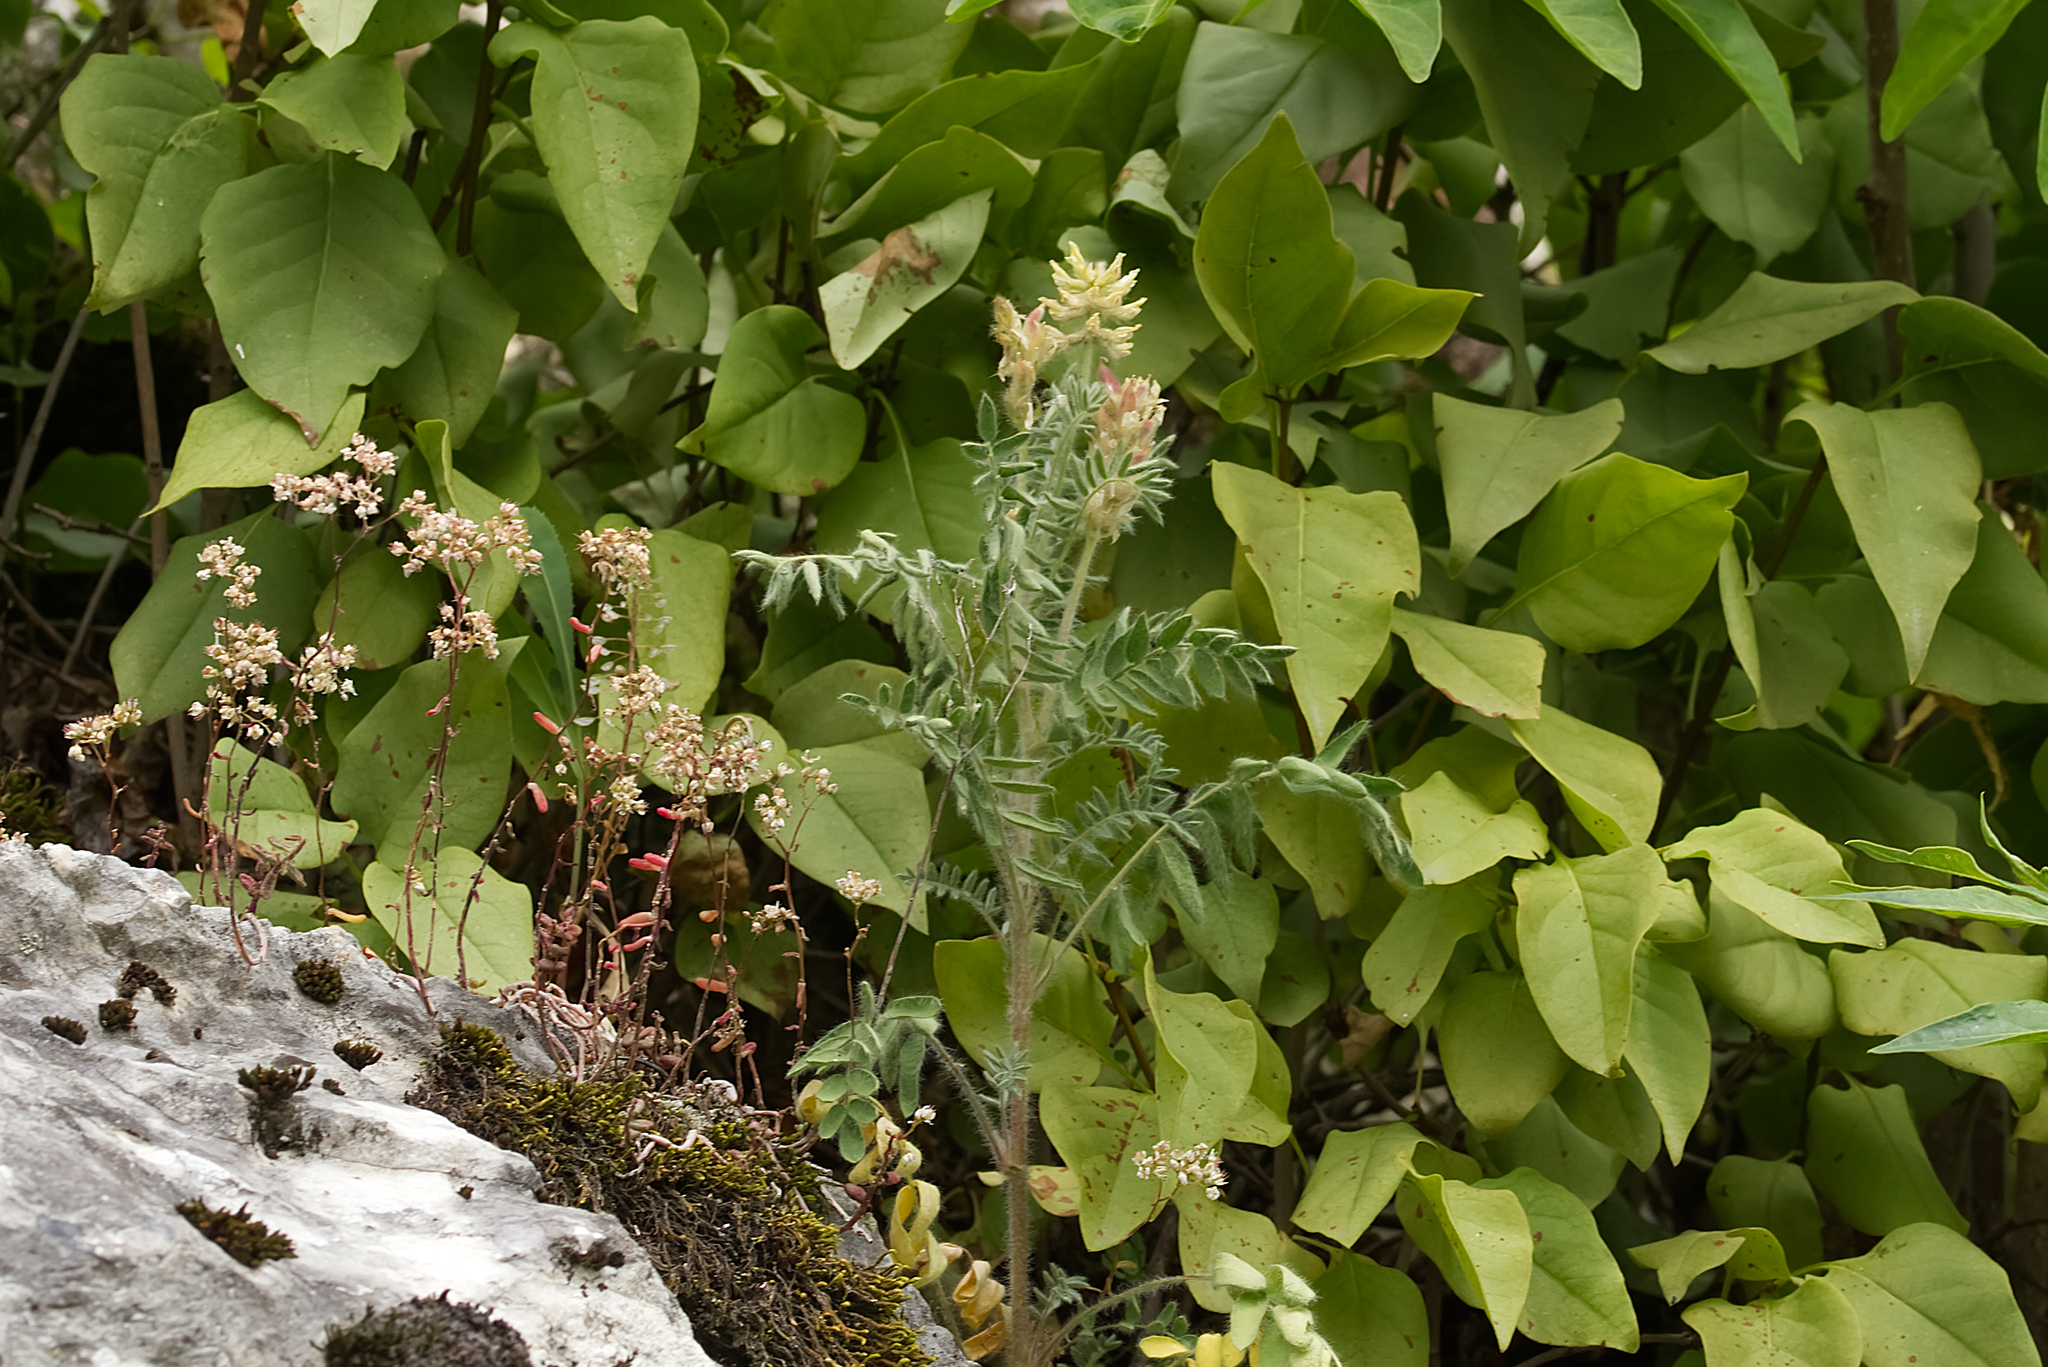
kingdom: Plantae
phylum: Tracheophyta
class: Magnoliopsida
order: Fabales
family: Fabaceae
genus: Oxytropis
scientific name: Oxytropis pilosa
